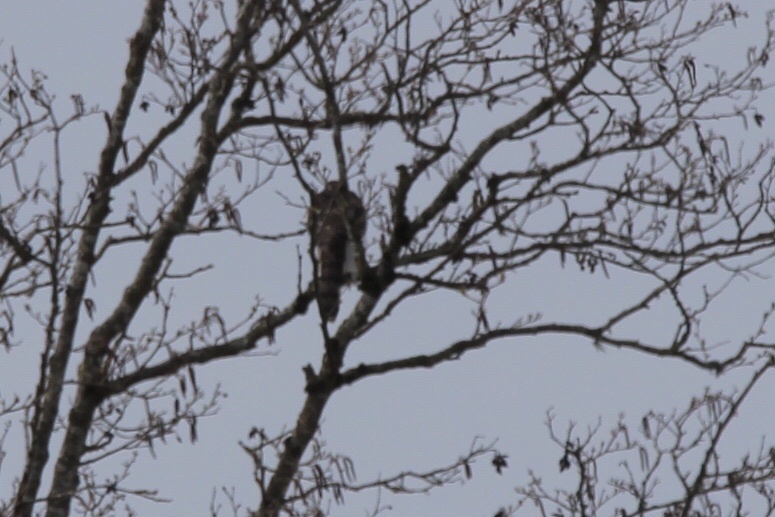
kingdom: Animalia
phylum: Chordata
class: Aves
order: Accipitriformes
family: Accipitridae
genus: Accipiter
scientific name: Accipiter cooperii
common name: Cooper's hawk
